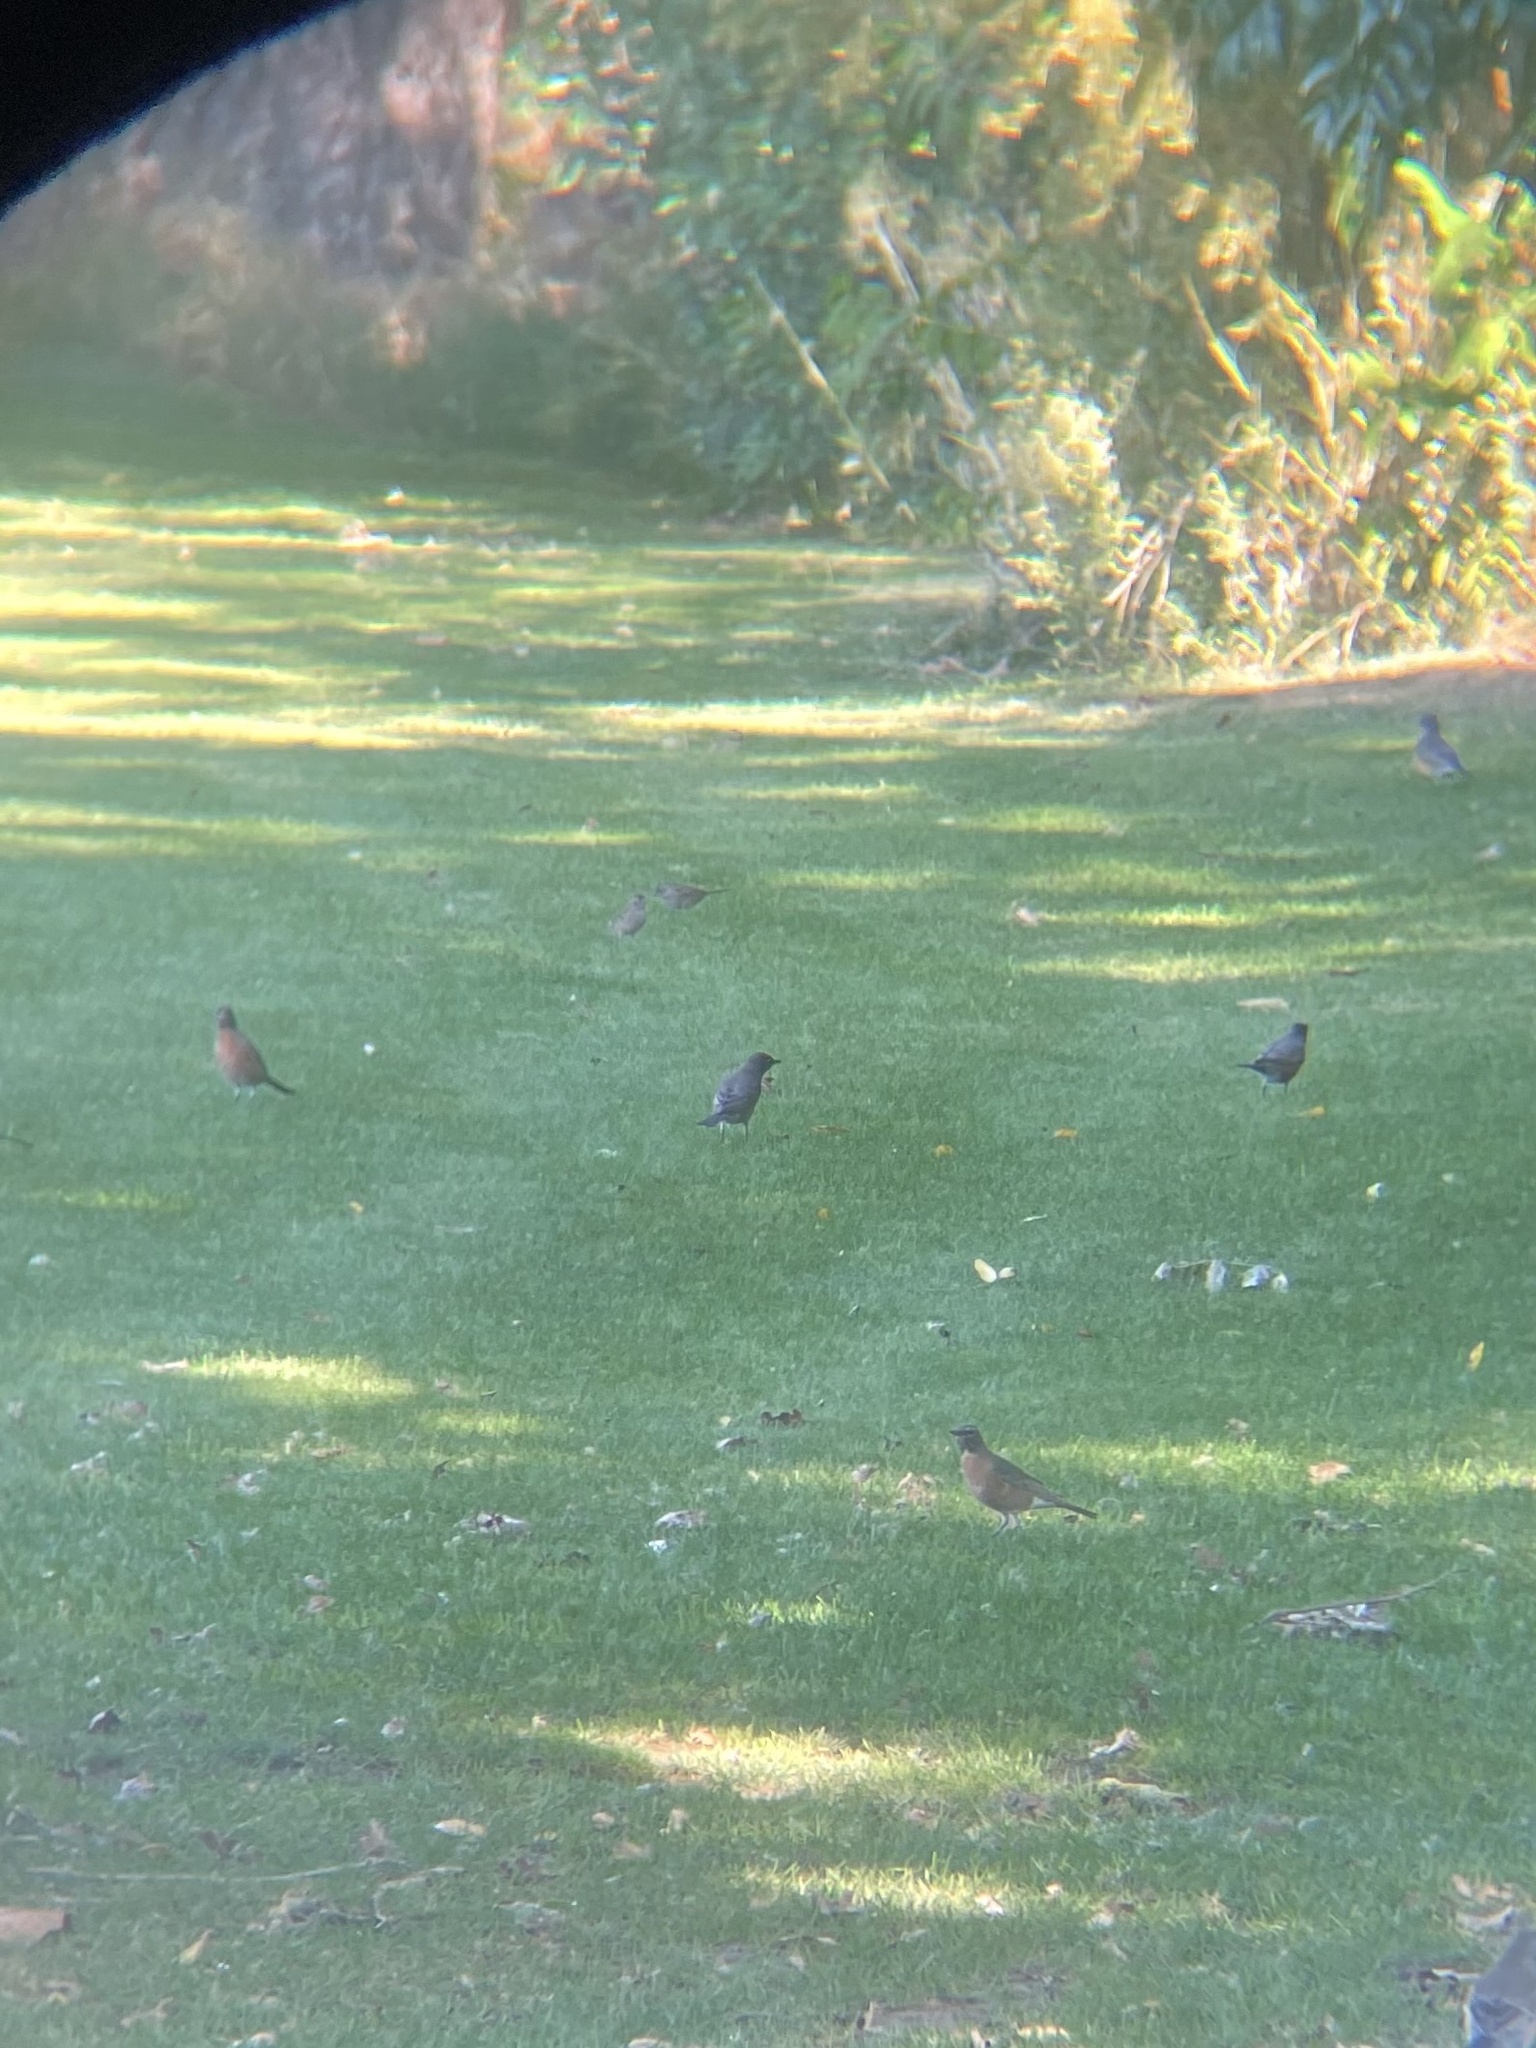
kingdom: Animalia
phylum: Chordata
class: Aves
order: Passeriformes
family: Turdidae
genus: Turdus
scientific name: Turdus migratorius
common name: American robin
